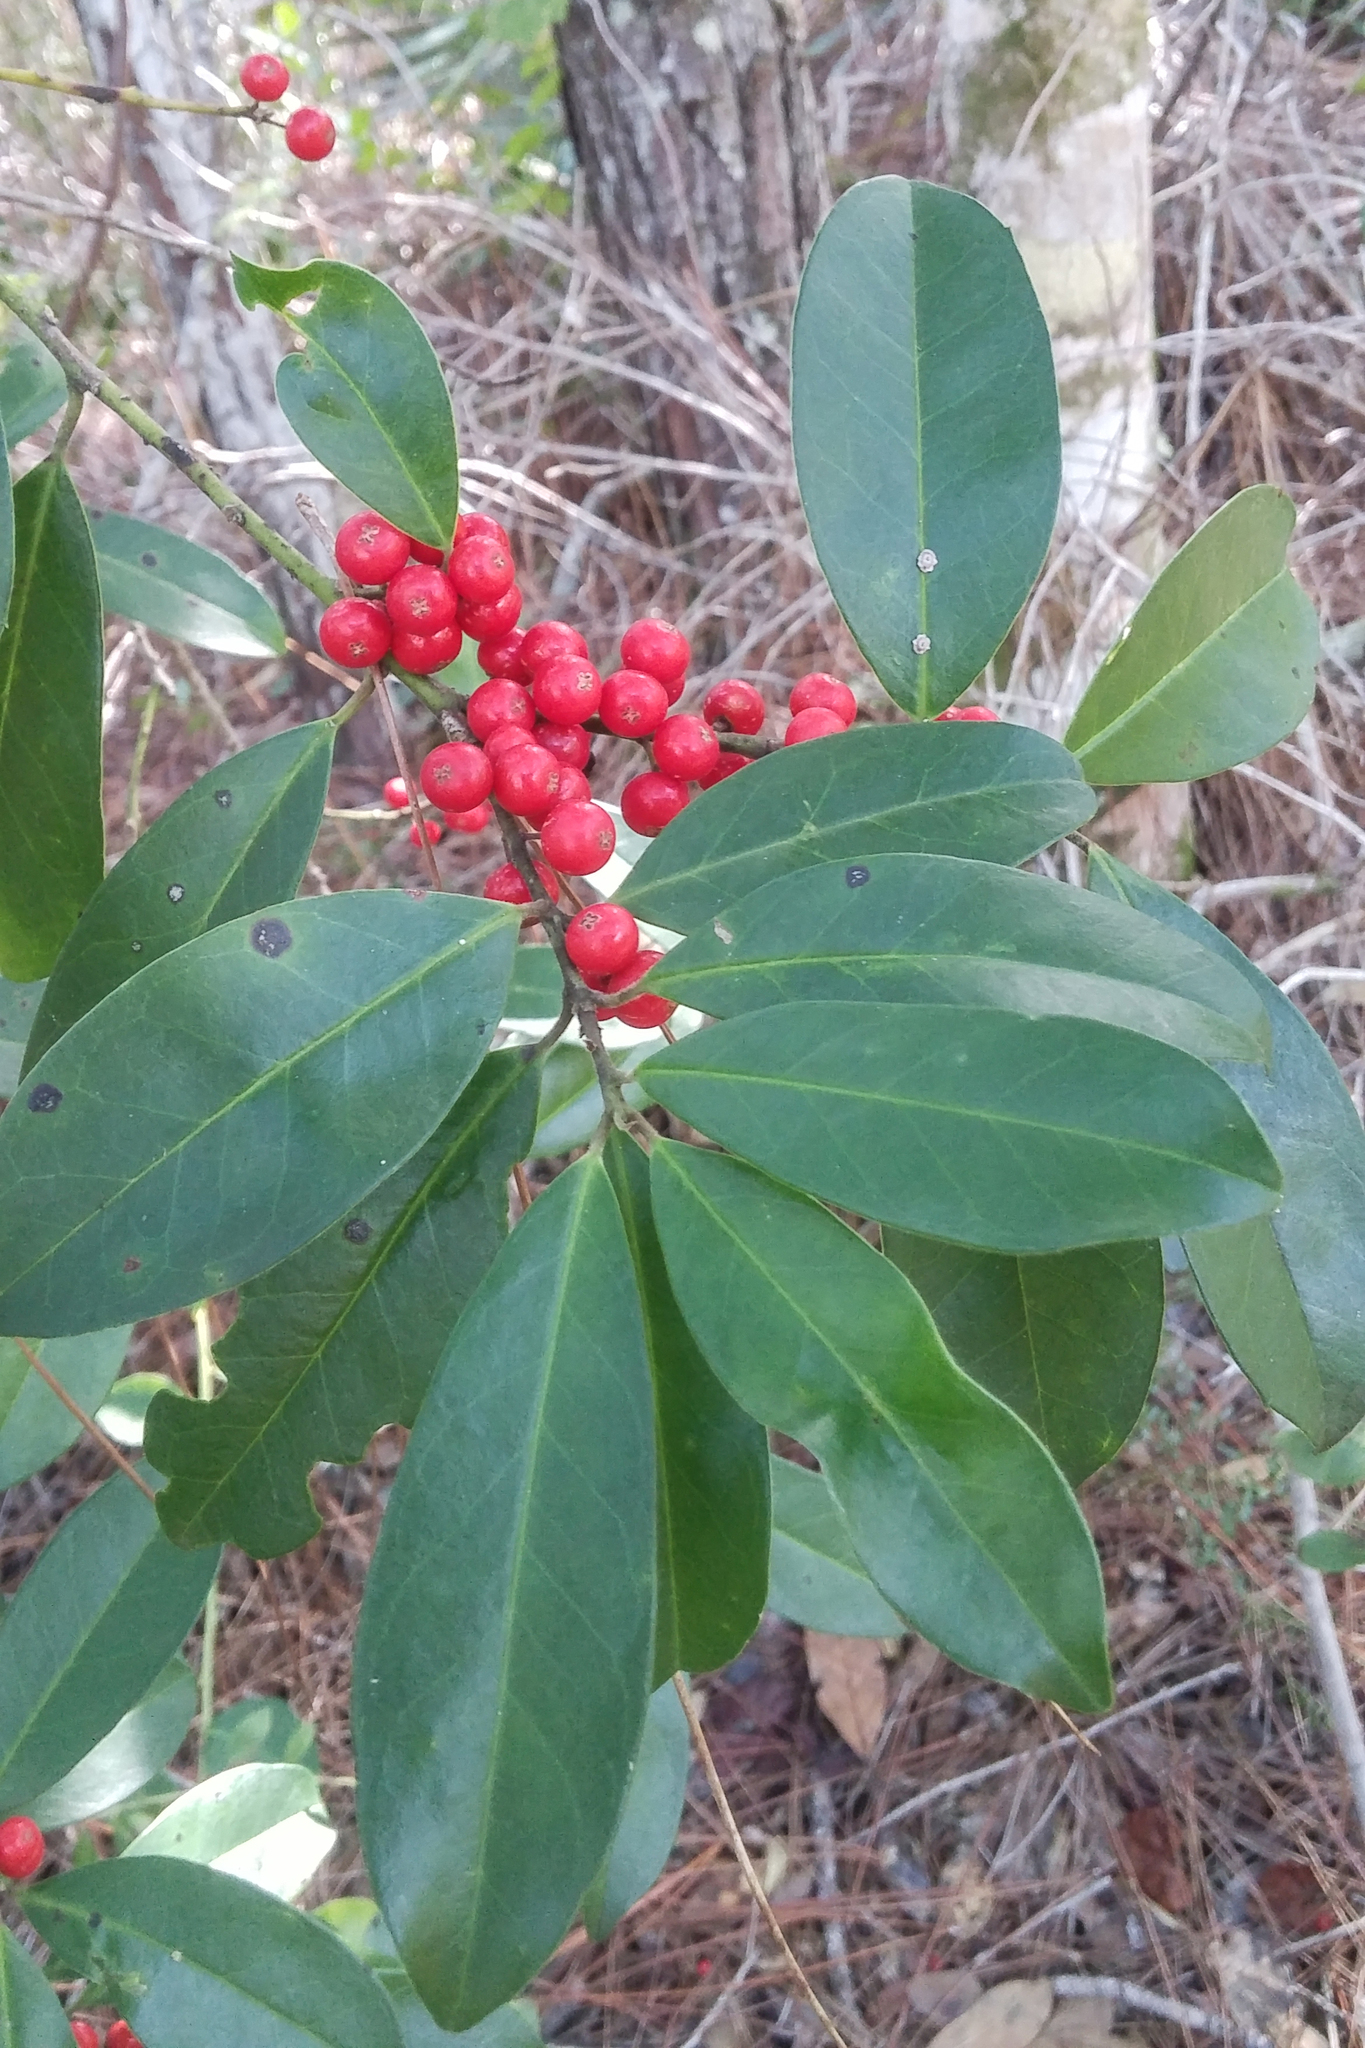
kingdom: Plantae
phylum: Tracheophyta
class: Magnoliopsida
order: Aquifoliales
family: Aquifoliaceae
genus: Ilex
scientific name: Ilex cassine
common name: Dahoon
